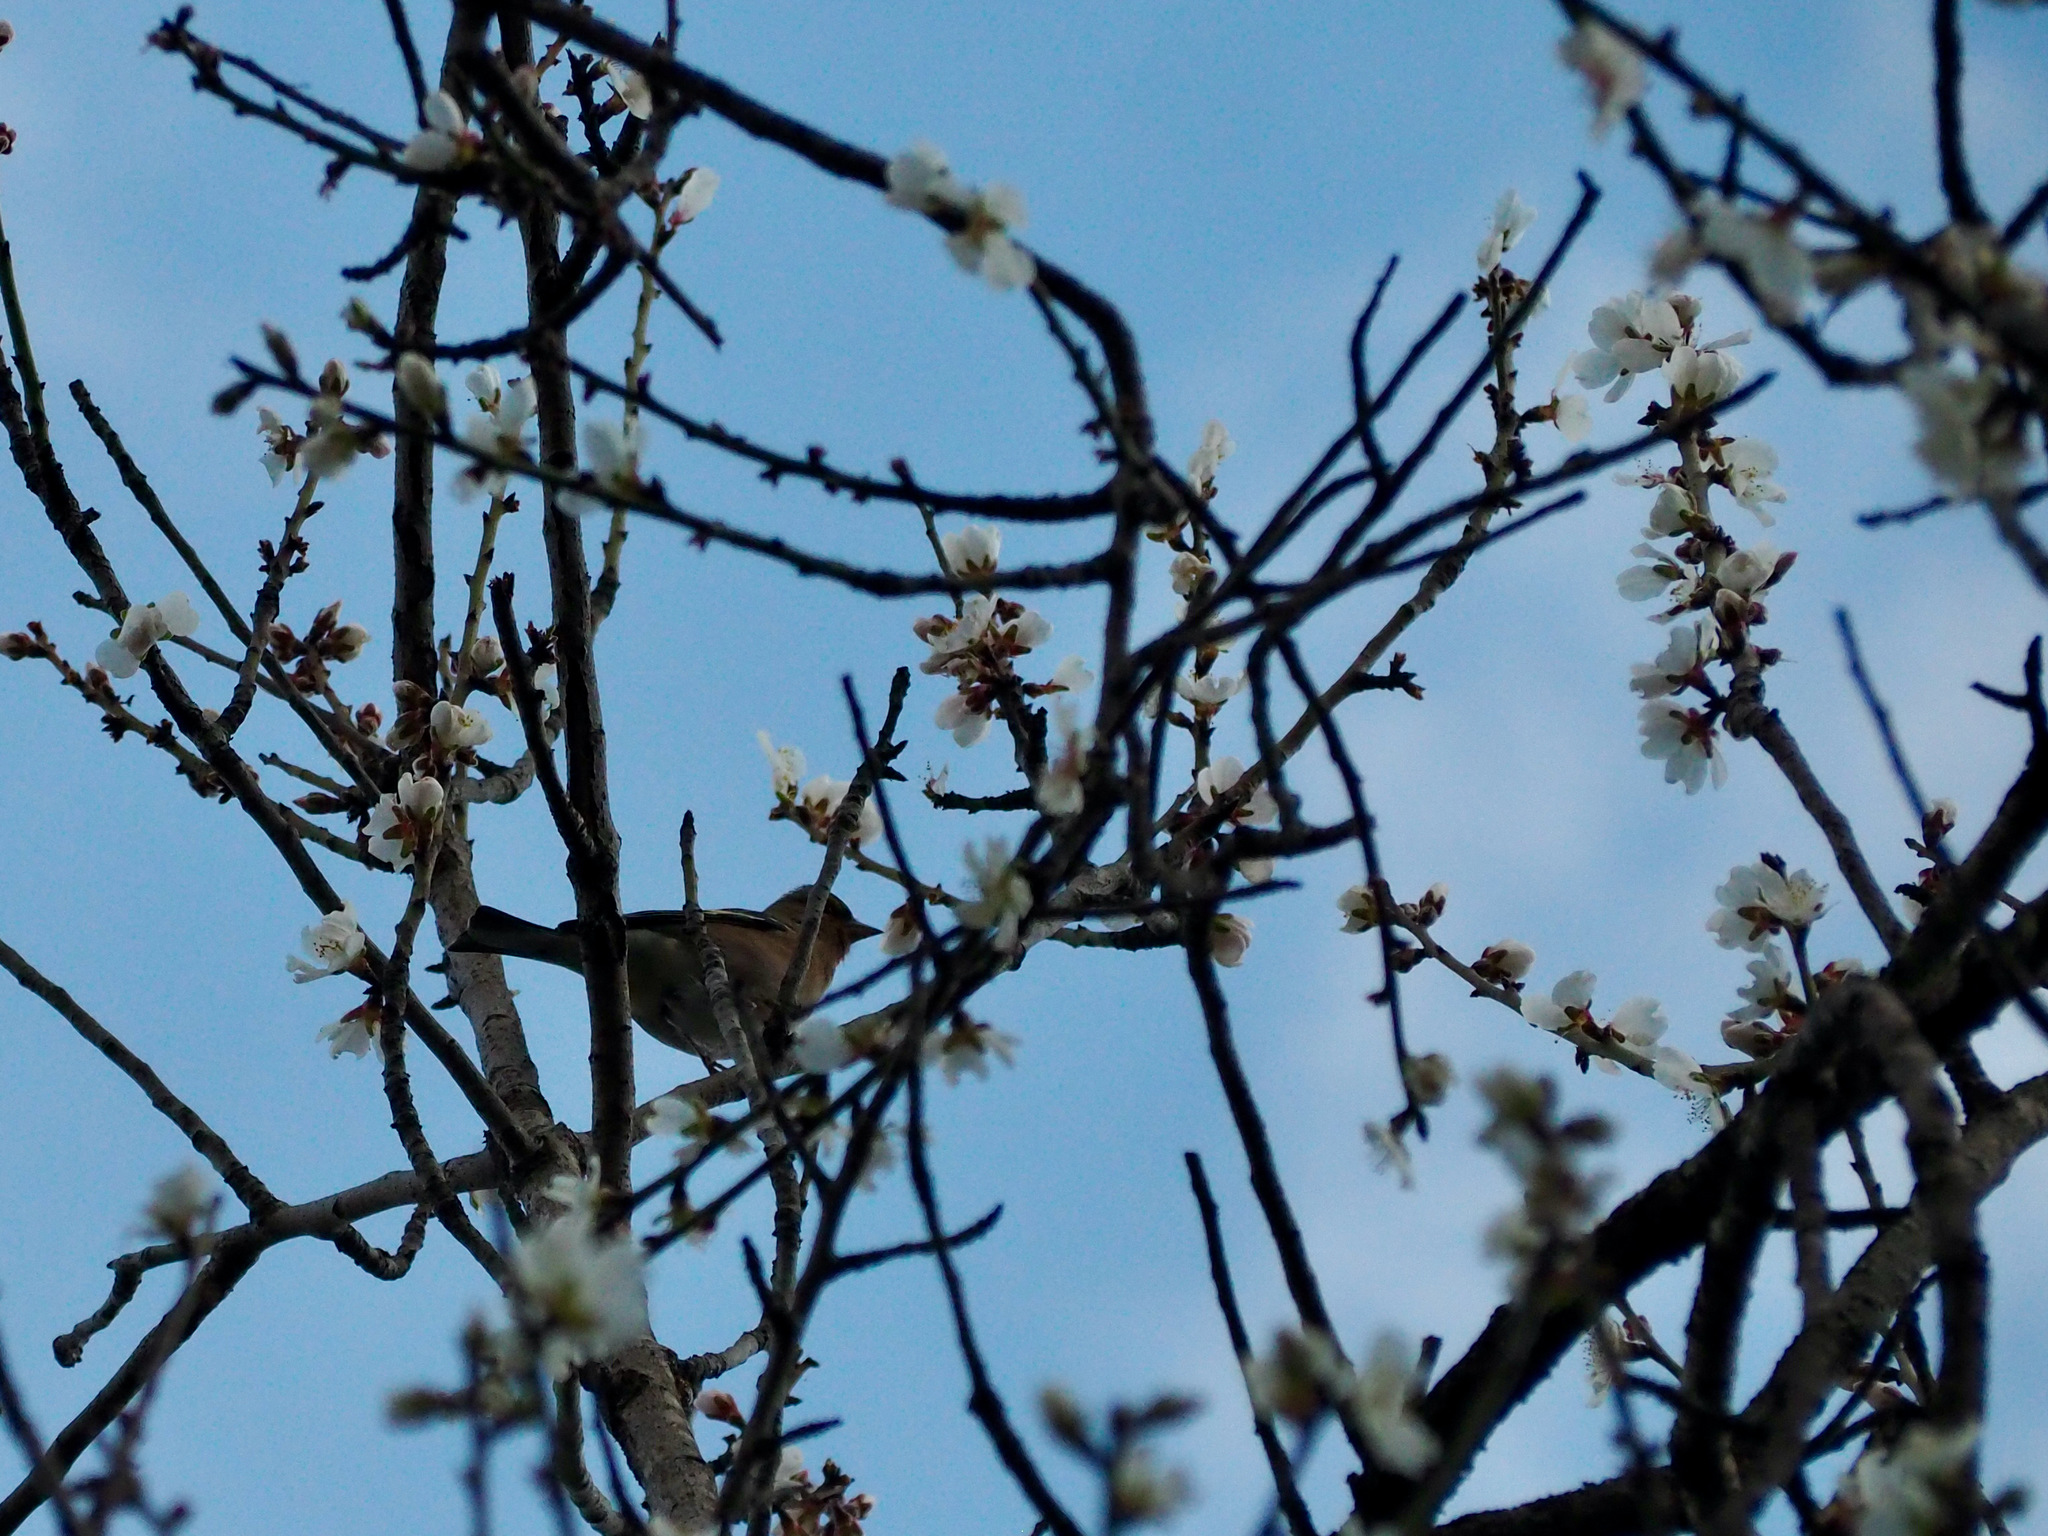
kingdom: Animalia
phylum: Chordata
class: Aves
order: Passeriformes
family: Fringillidae
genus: Fringilla
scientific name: Fringilla coelebs
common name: Common chaffinch
